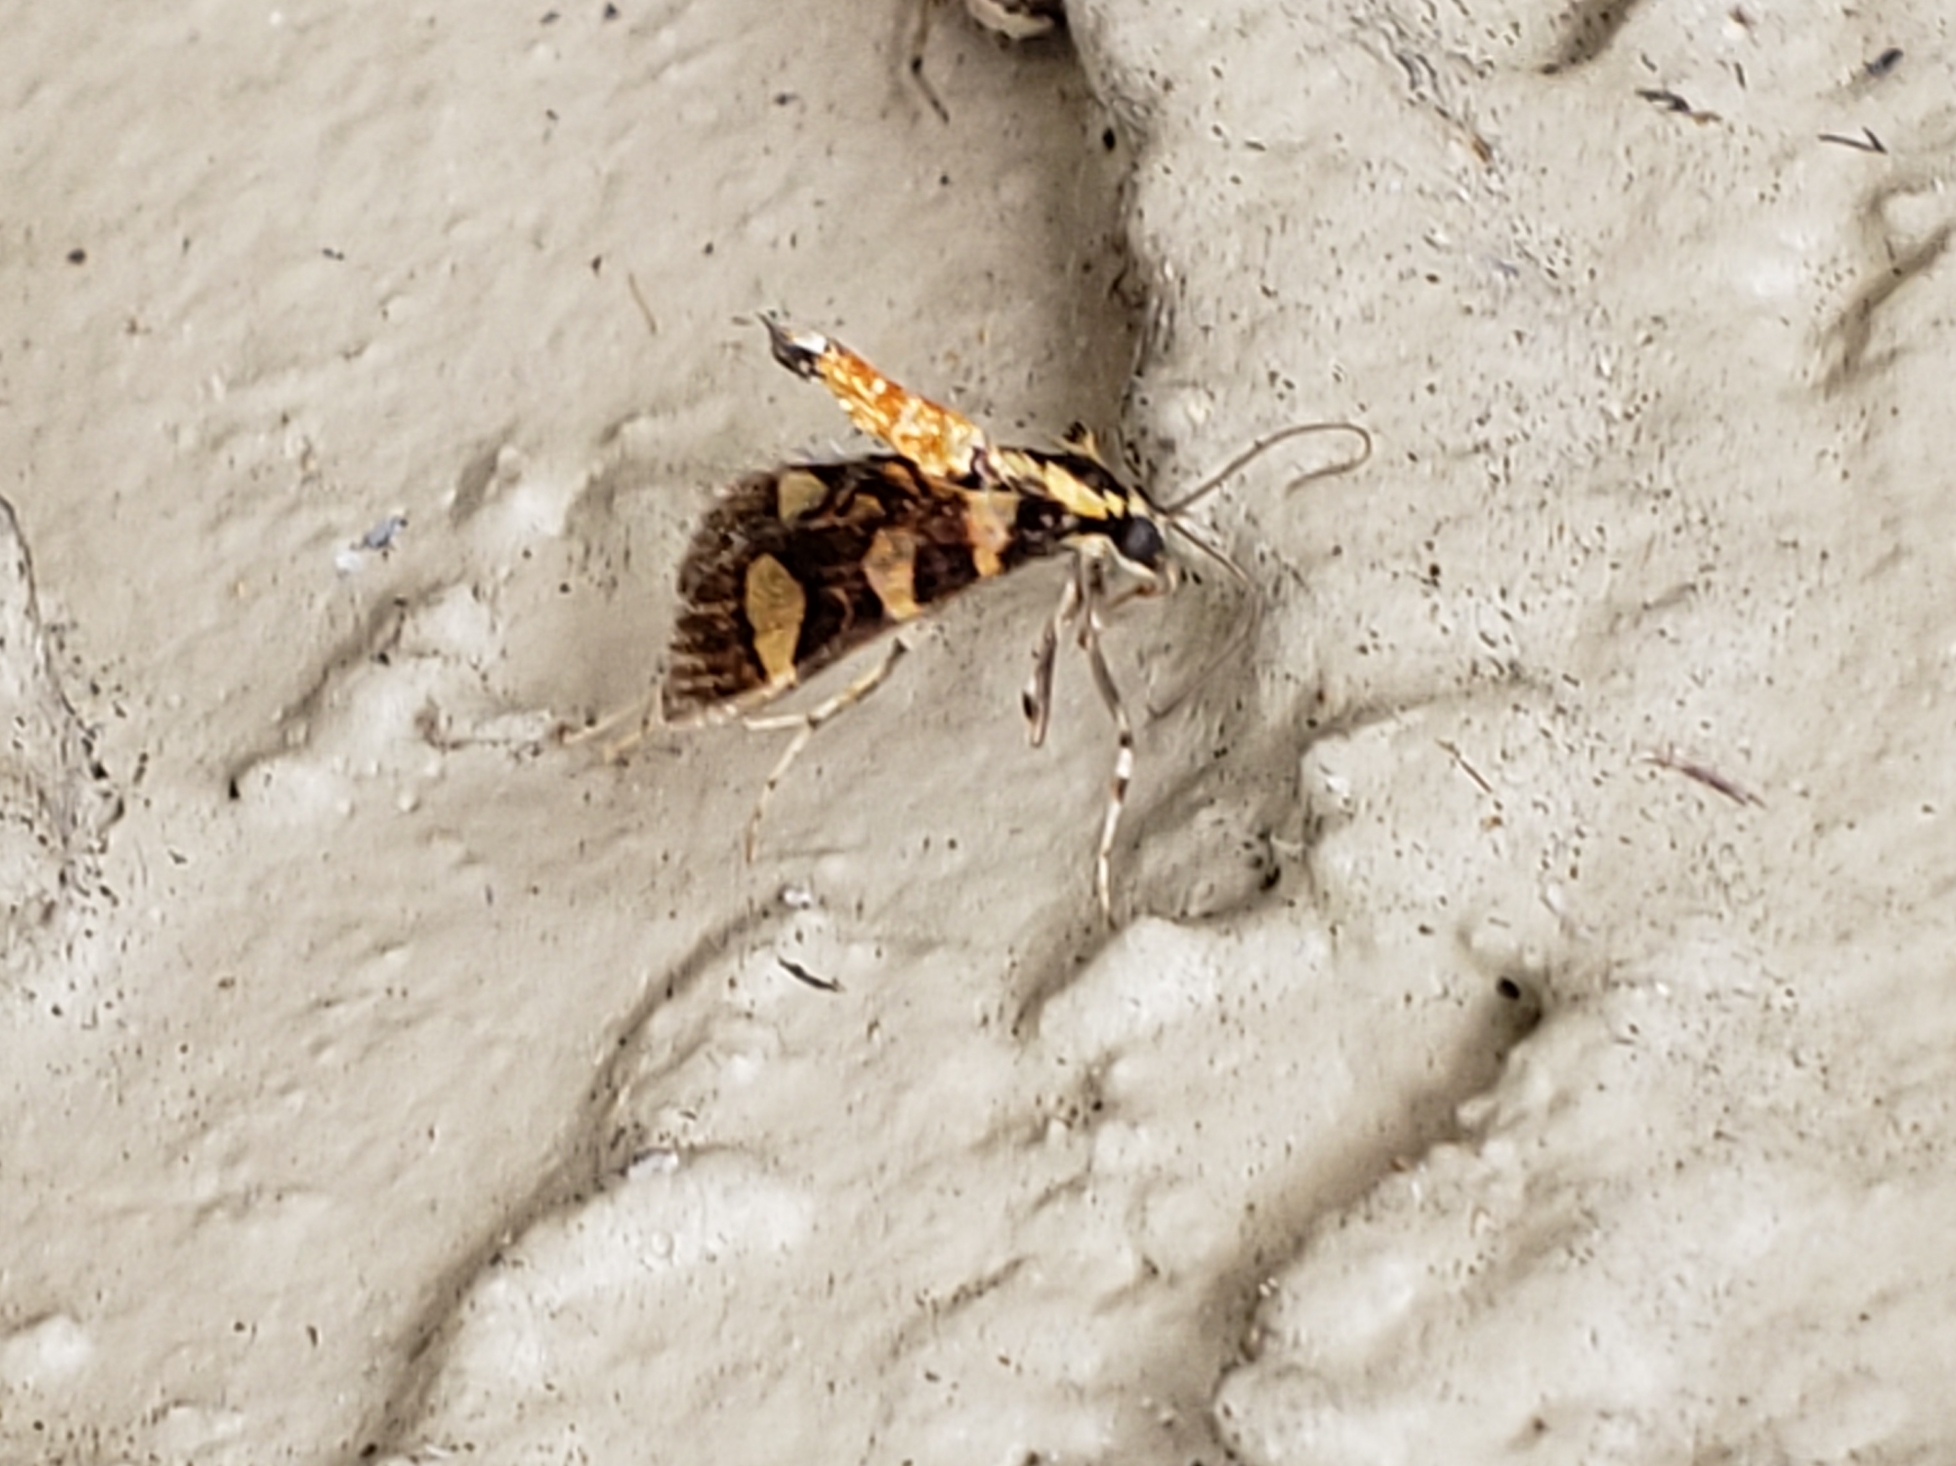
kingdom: Animalia
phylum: Arthropoda
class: Insecta
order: Lepidoptera
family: Crambidae
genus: Syngamia
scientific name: Syngamia florella
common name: Orange-spotted flower moth
